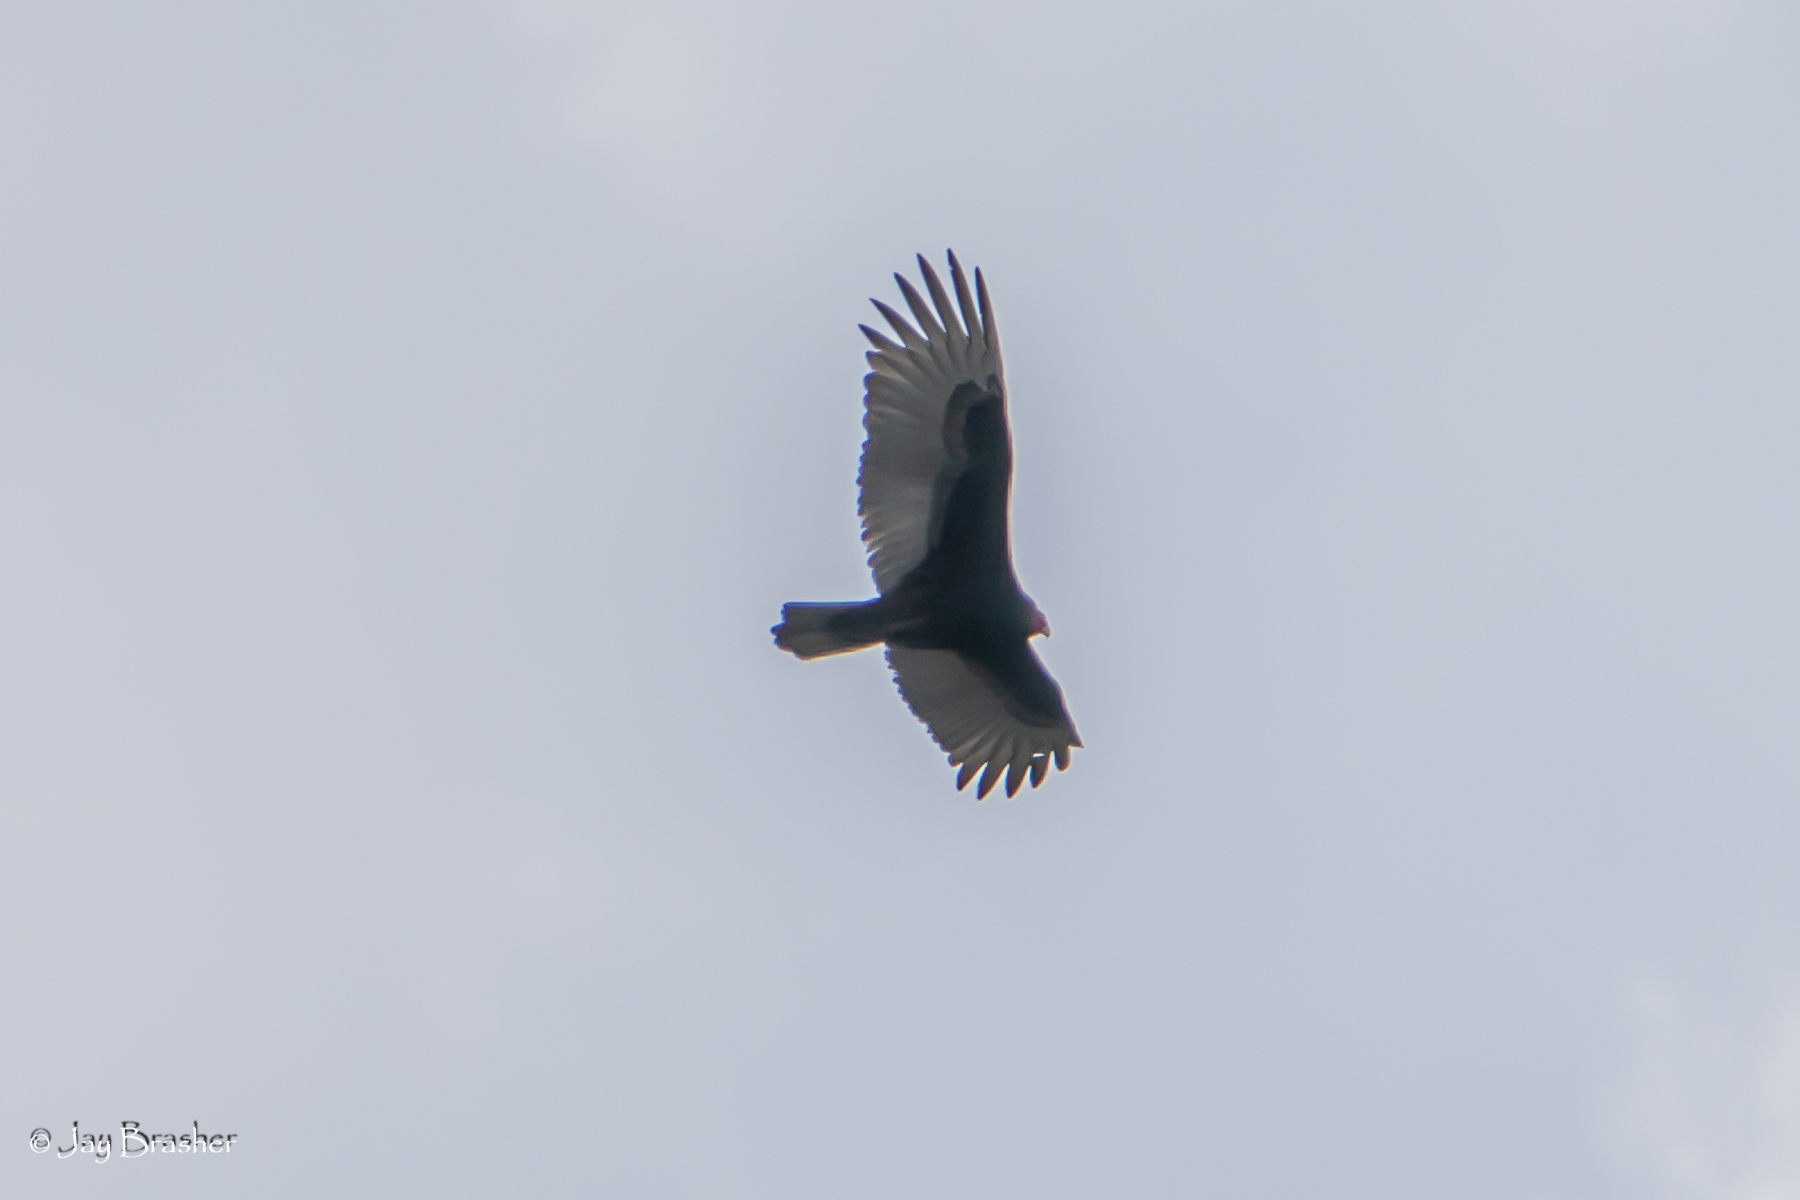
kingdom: Animalia
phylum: Chordata
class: Aves
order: Accipitriformes
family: Cathartidae
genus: Cathartes
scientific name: Cathartes aura
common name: Turkey vulture
